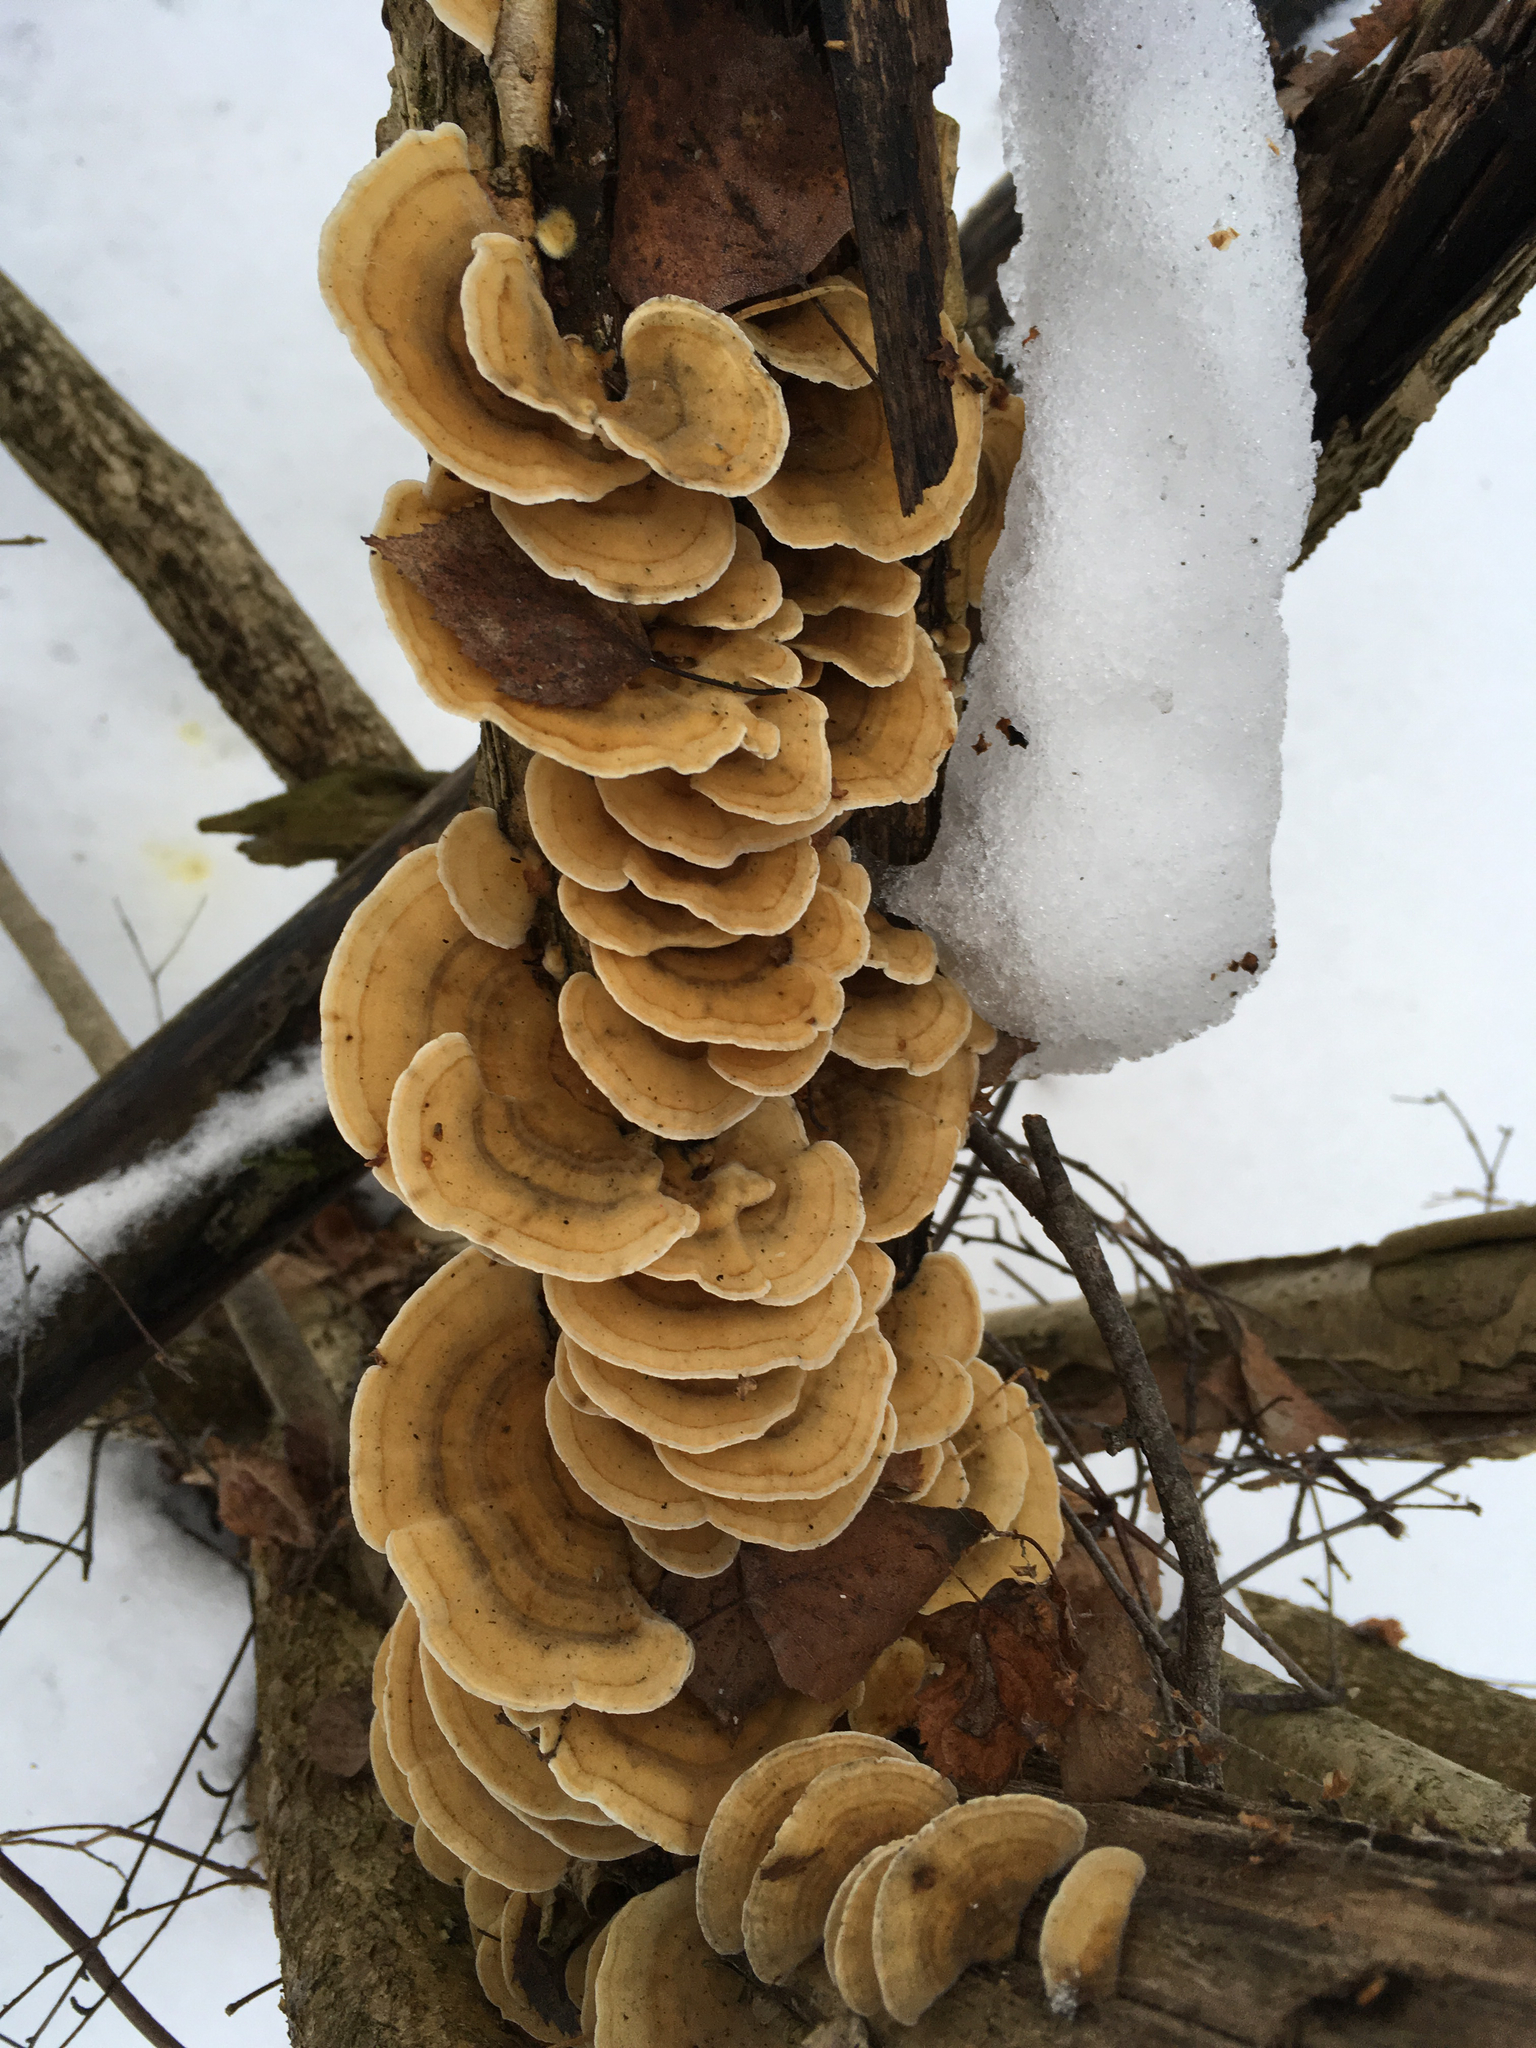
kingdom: Fungi
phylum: Basidiomycota
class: Agaricomycetes
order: Polyporales
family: Polyporaceae
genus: Trametes
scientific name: Trametes ochracea
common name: Ochre bracket
